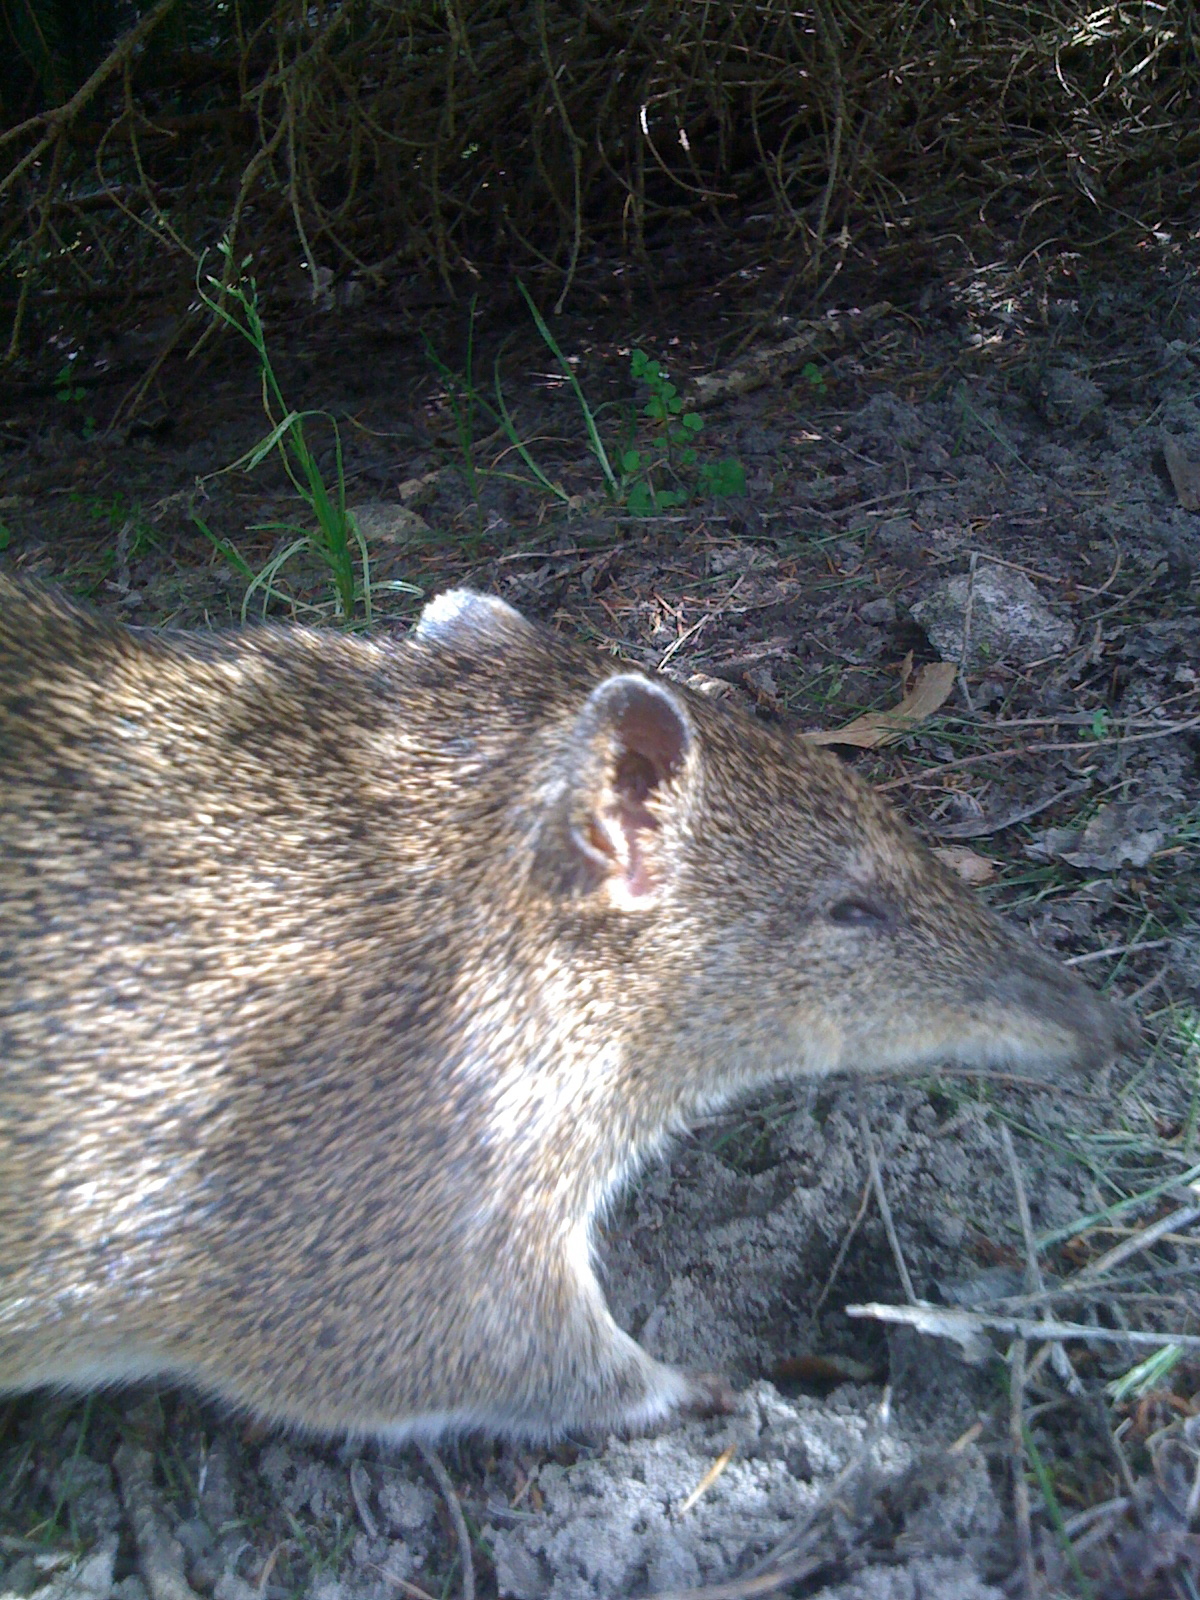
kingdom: Animalia
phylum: Chordata
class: Mammalia
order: Peramelemorphia
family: Peramelidae
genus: Isoodon
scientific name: Isoodon obesulus
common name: Southern brown bandicoot
